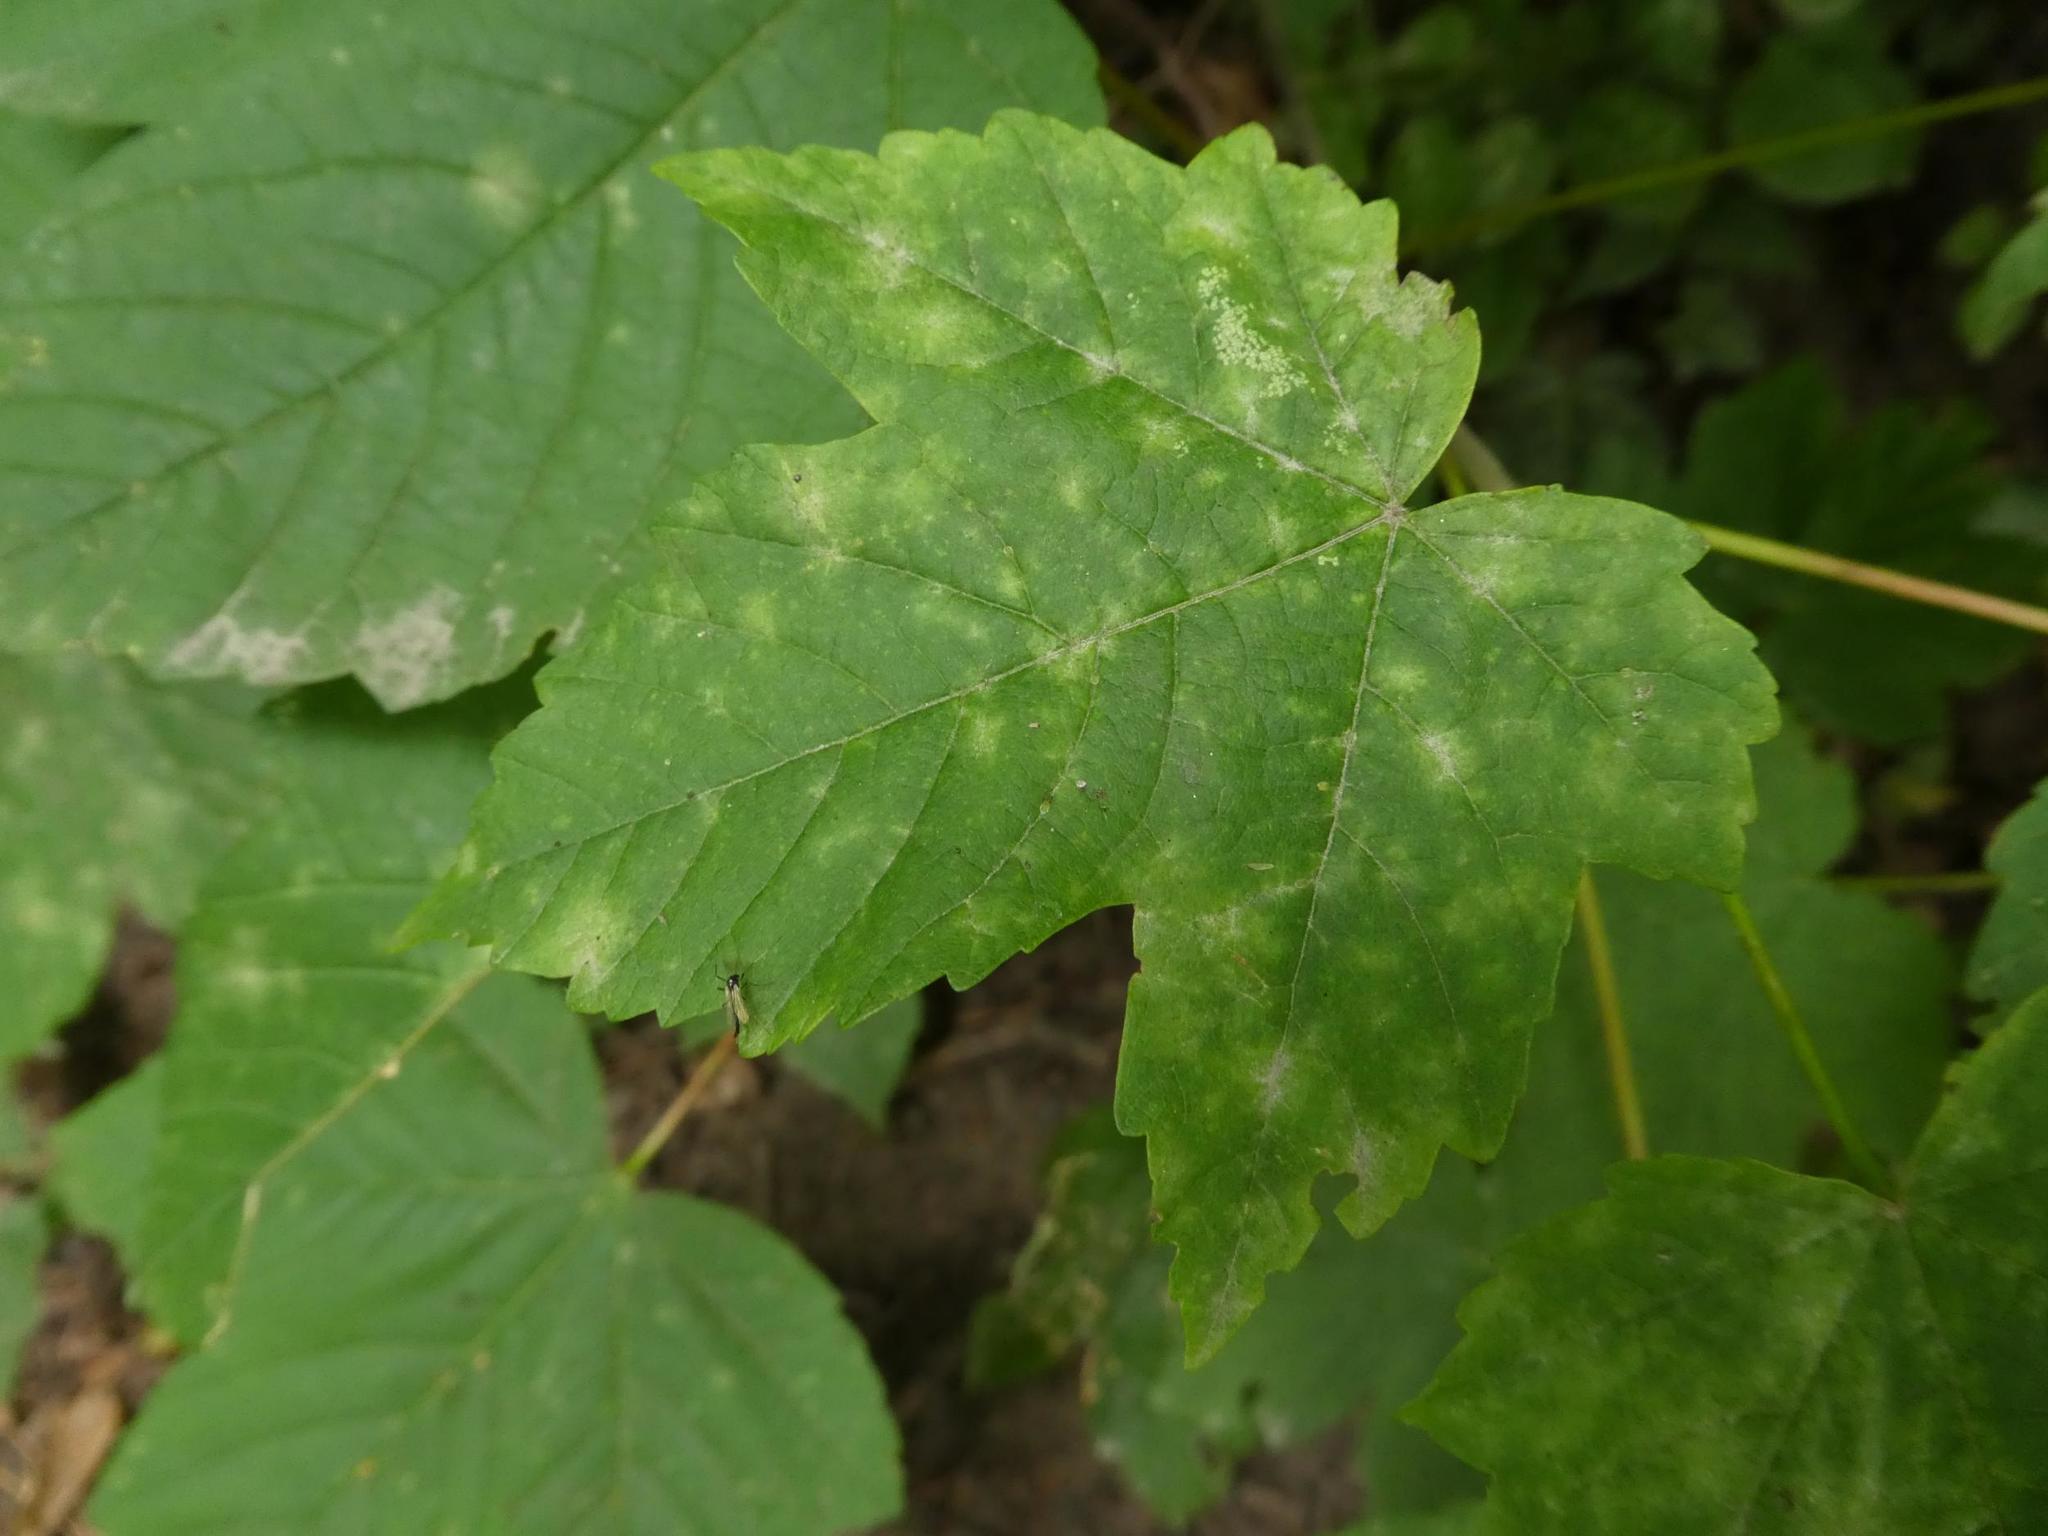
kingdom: Plantae
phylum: Tracheophyta
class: Magnoliopsida
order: Sapindales
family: Sapindaceae
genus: Acer
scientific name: Acer pseudoplatanus
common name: Sycamore
